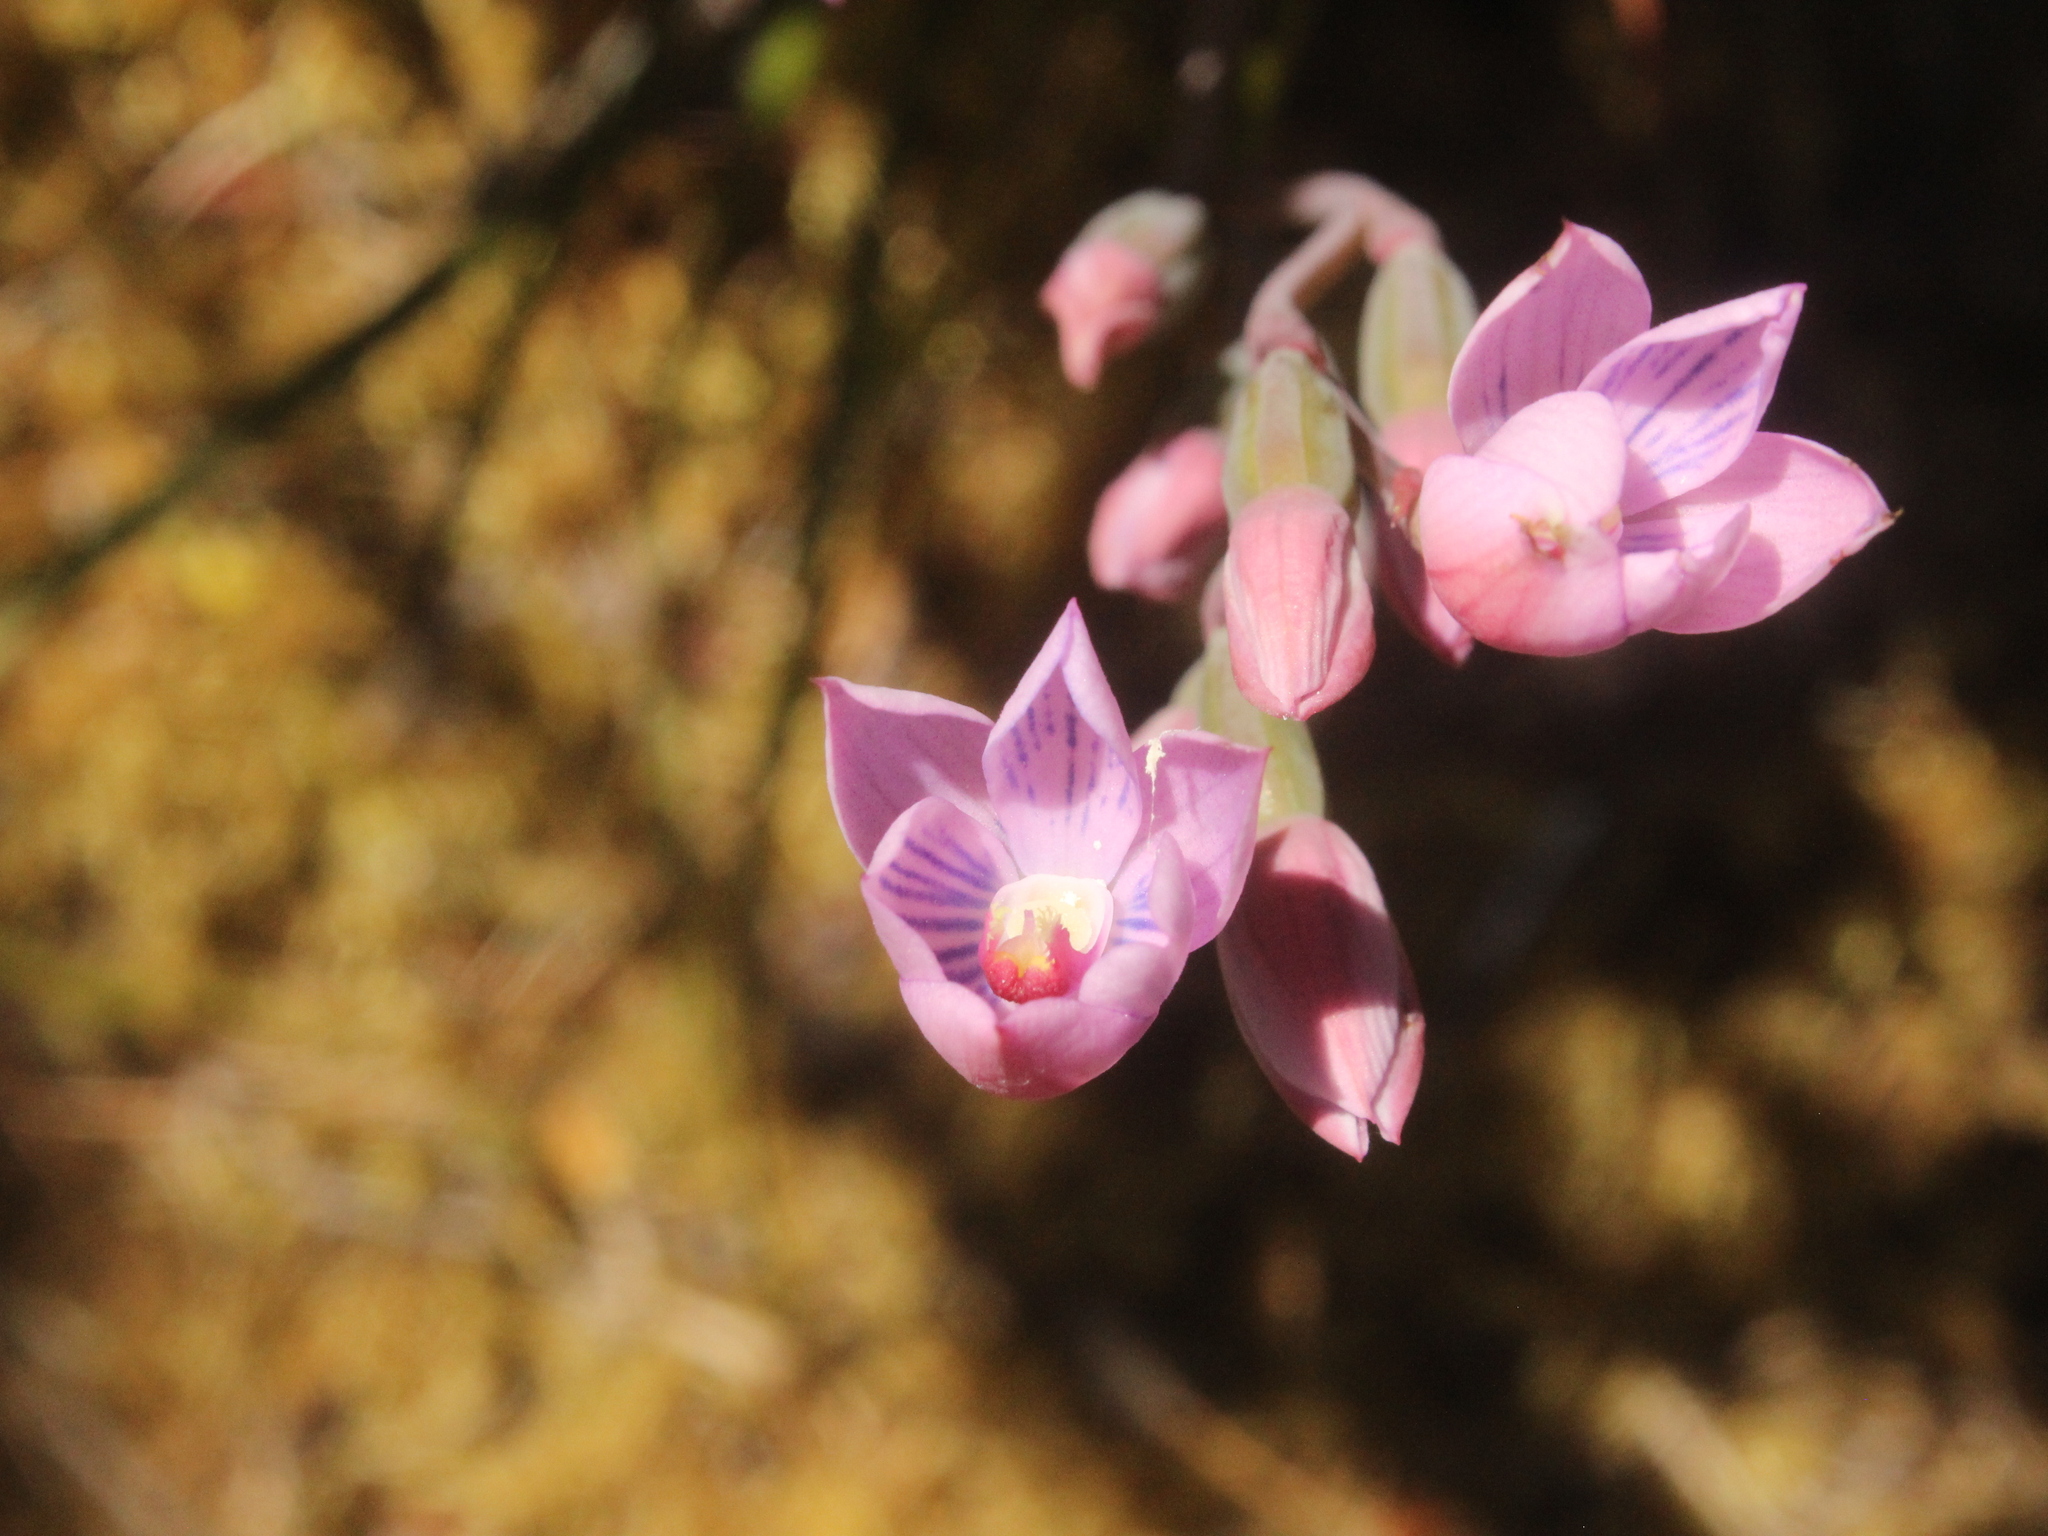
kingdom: Plantae
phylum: Tracheophyta
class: Liliopsida
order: Asparagales
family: Orchidaceae
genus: Thelymitra
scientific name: Thelymitra pulchella
